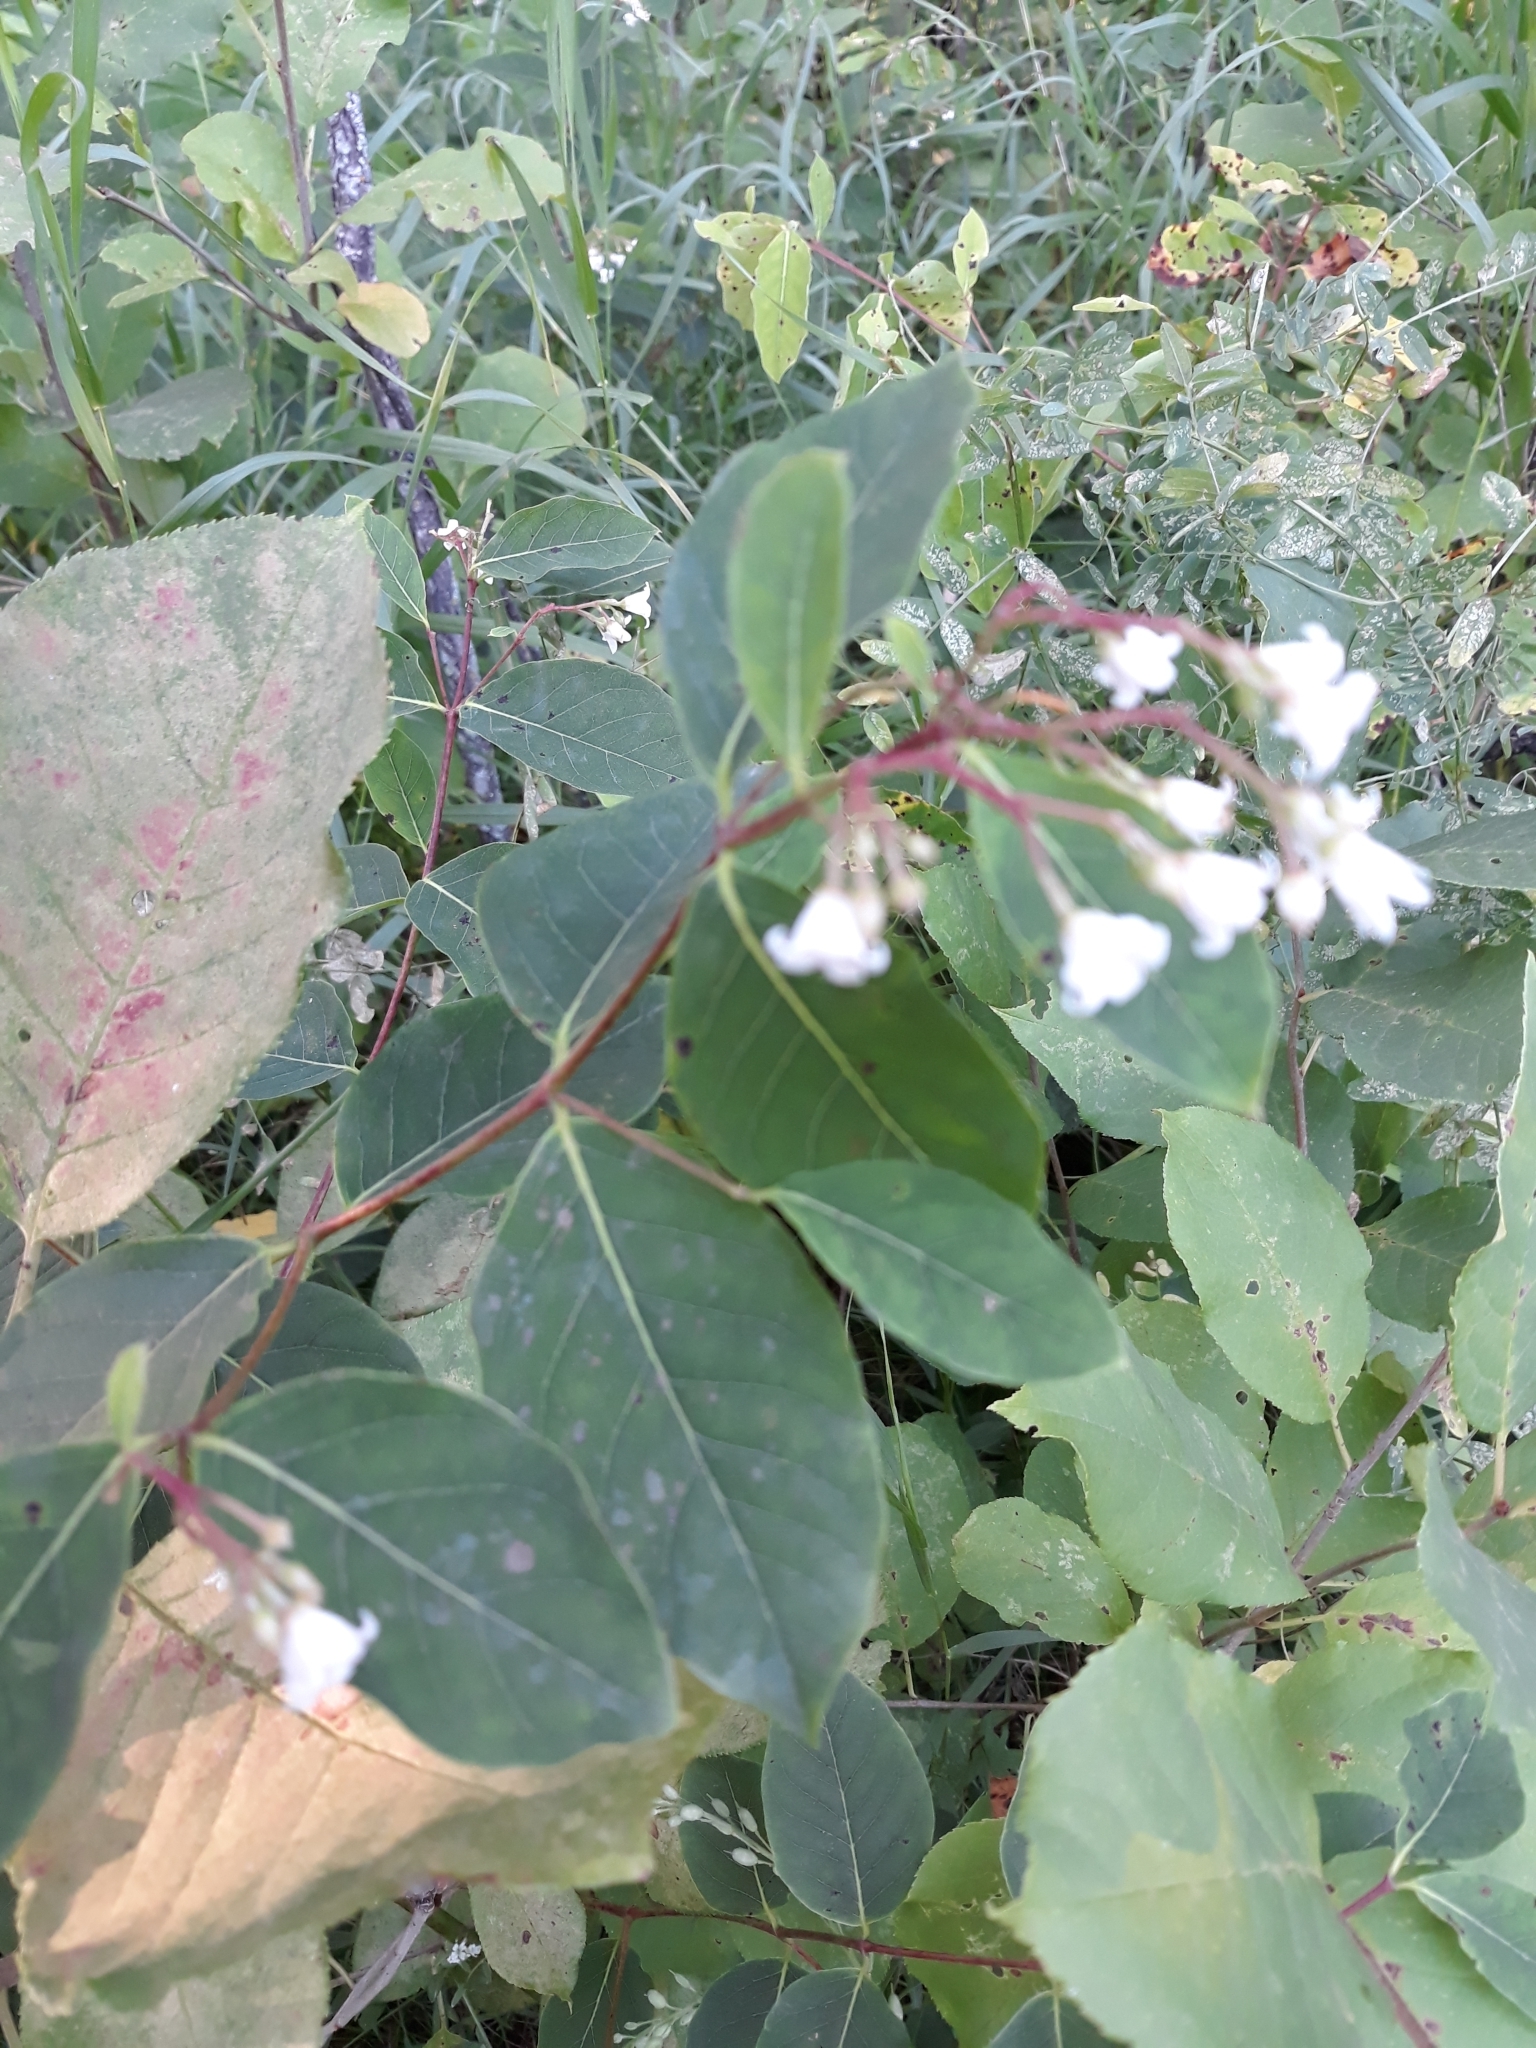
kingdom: Plantae
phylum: Tracheophyta
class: Magnoliopsida
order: Gentianales
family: Apocynaceae
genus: Apocynum
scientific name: Apocynum androsaemifolium
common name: Spreading dogbane
